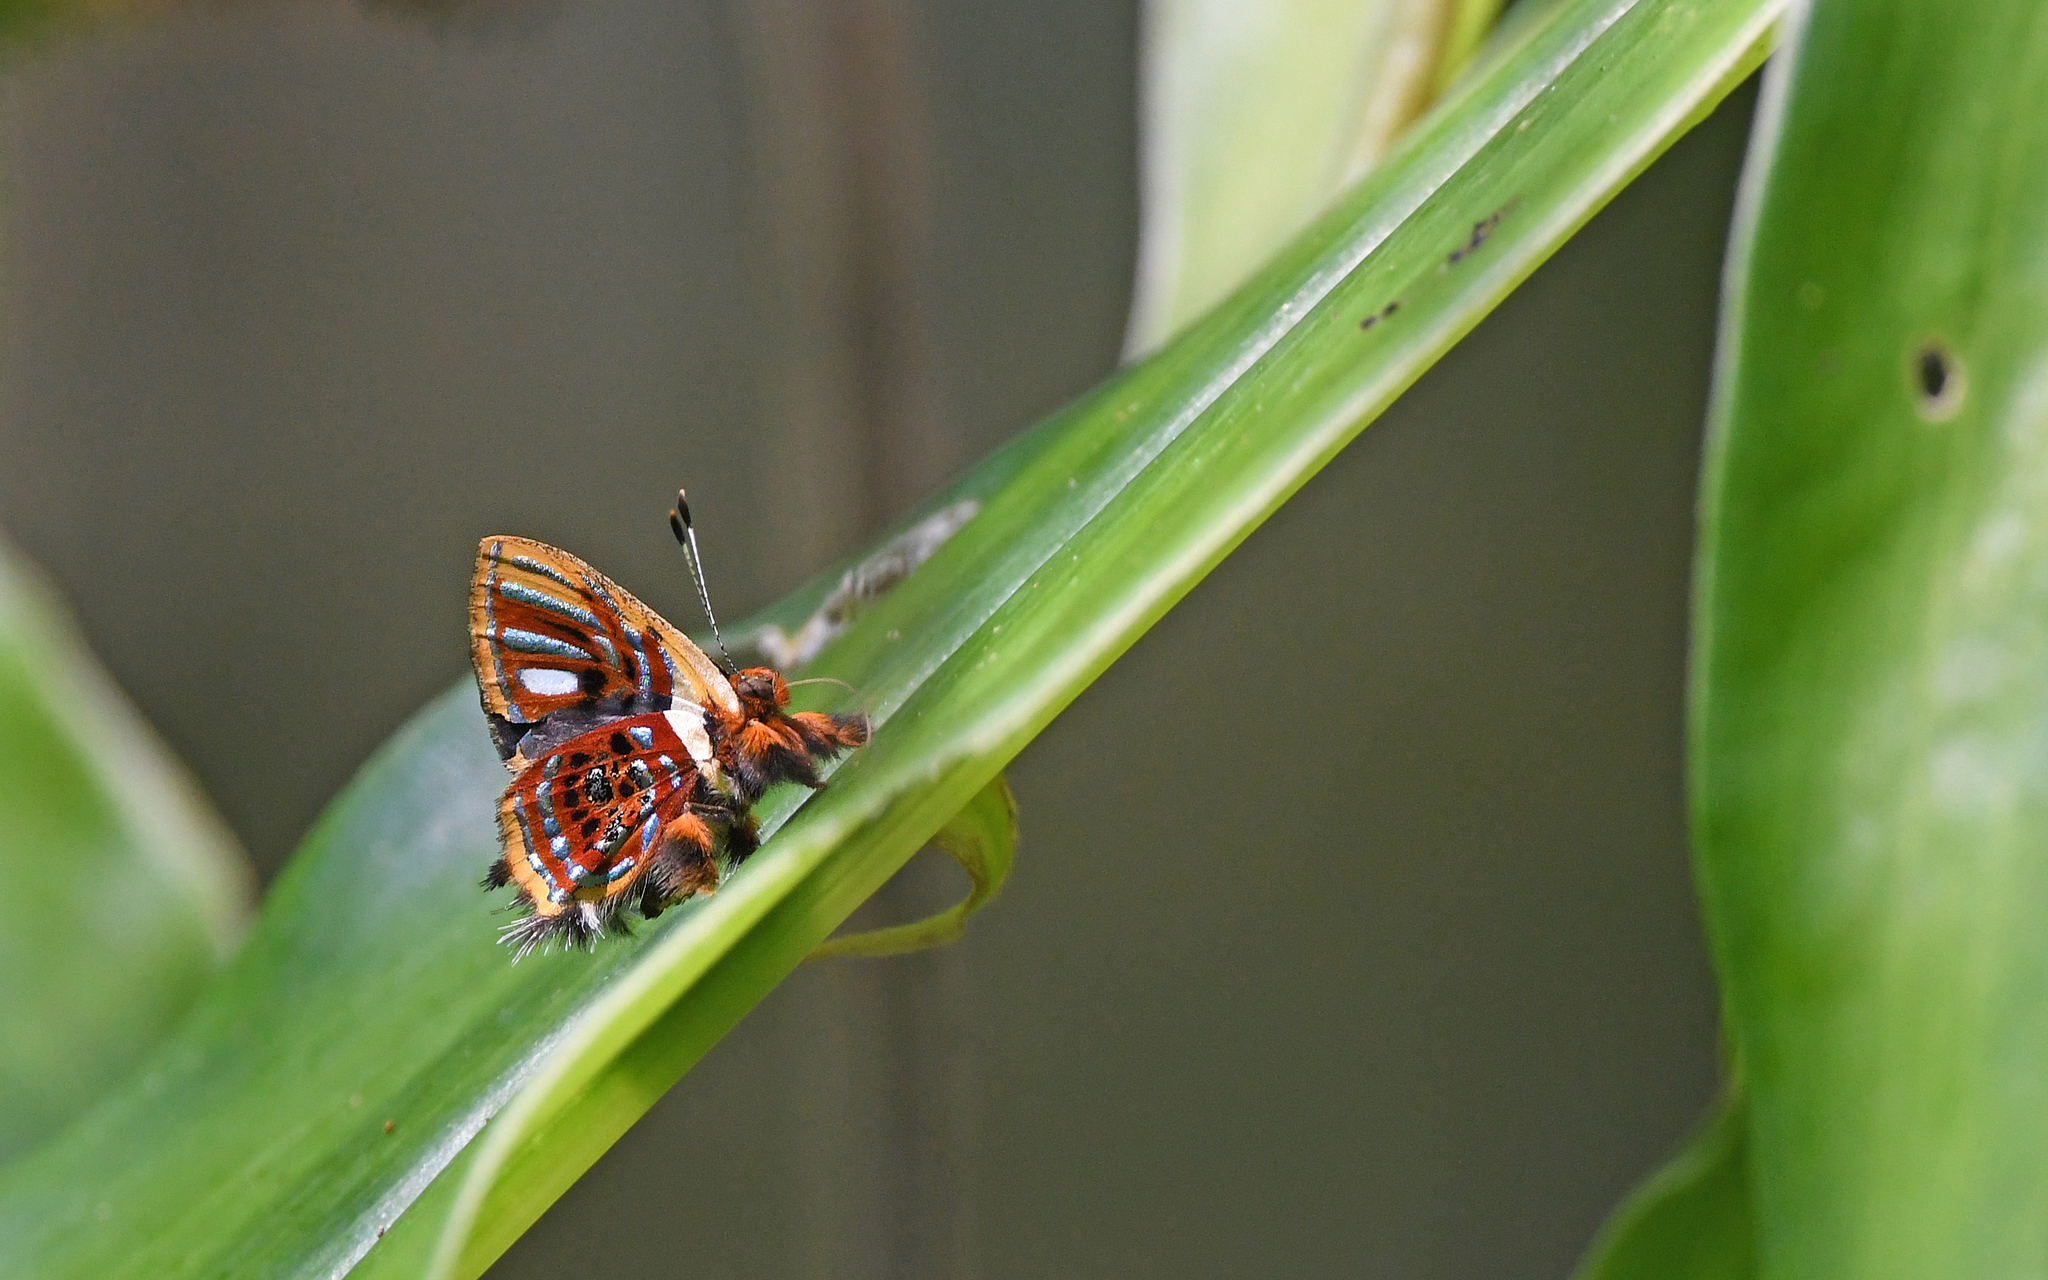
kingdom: Animalia
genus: Anteros
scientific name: Anteros aerosus
